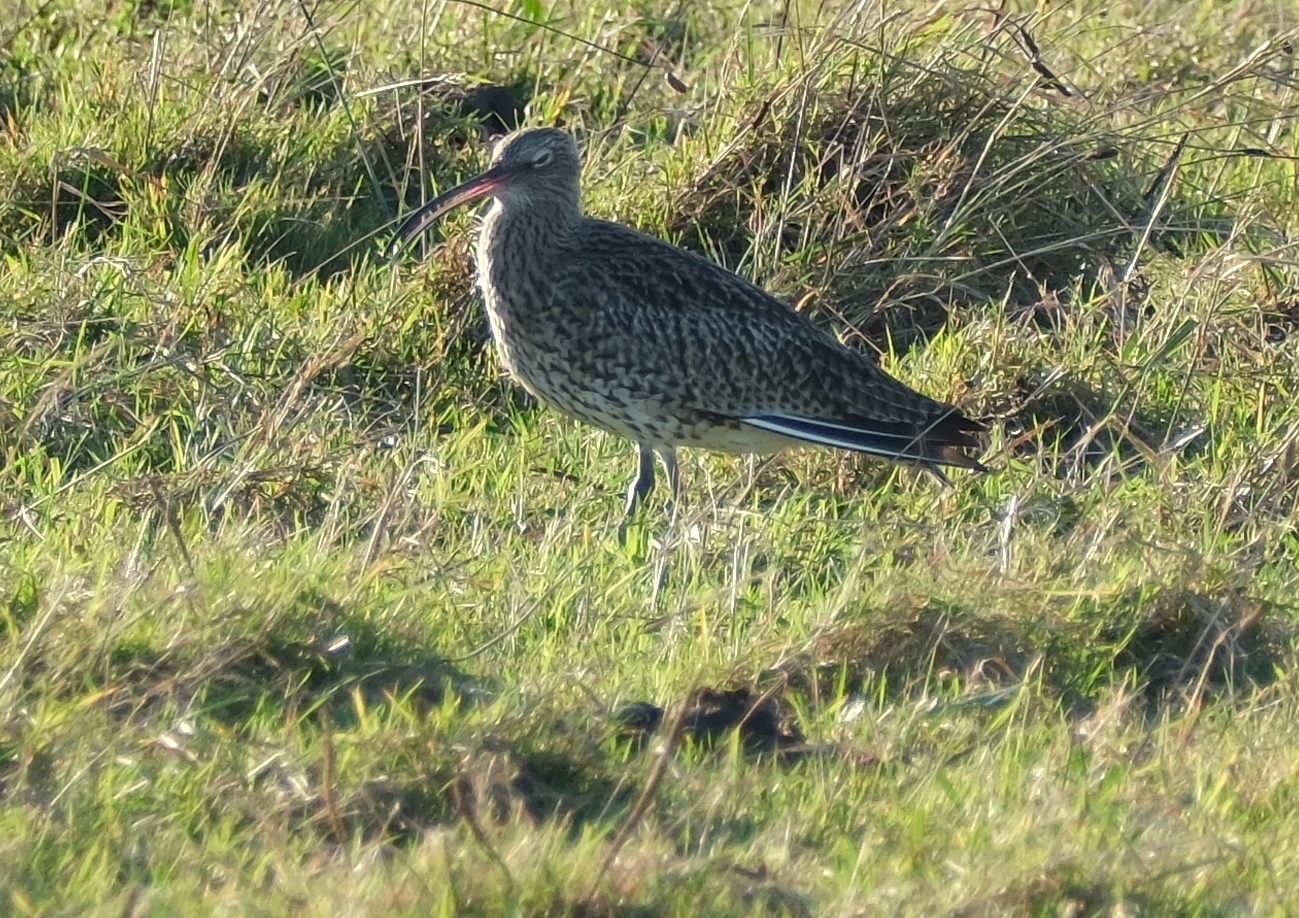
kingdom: Animalia
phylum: Chordata
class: Aves
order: Charadriiformes
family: Scolopacidae
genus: Numenius
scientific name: Numenius arquata
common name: Eurasian curlew
